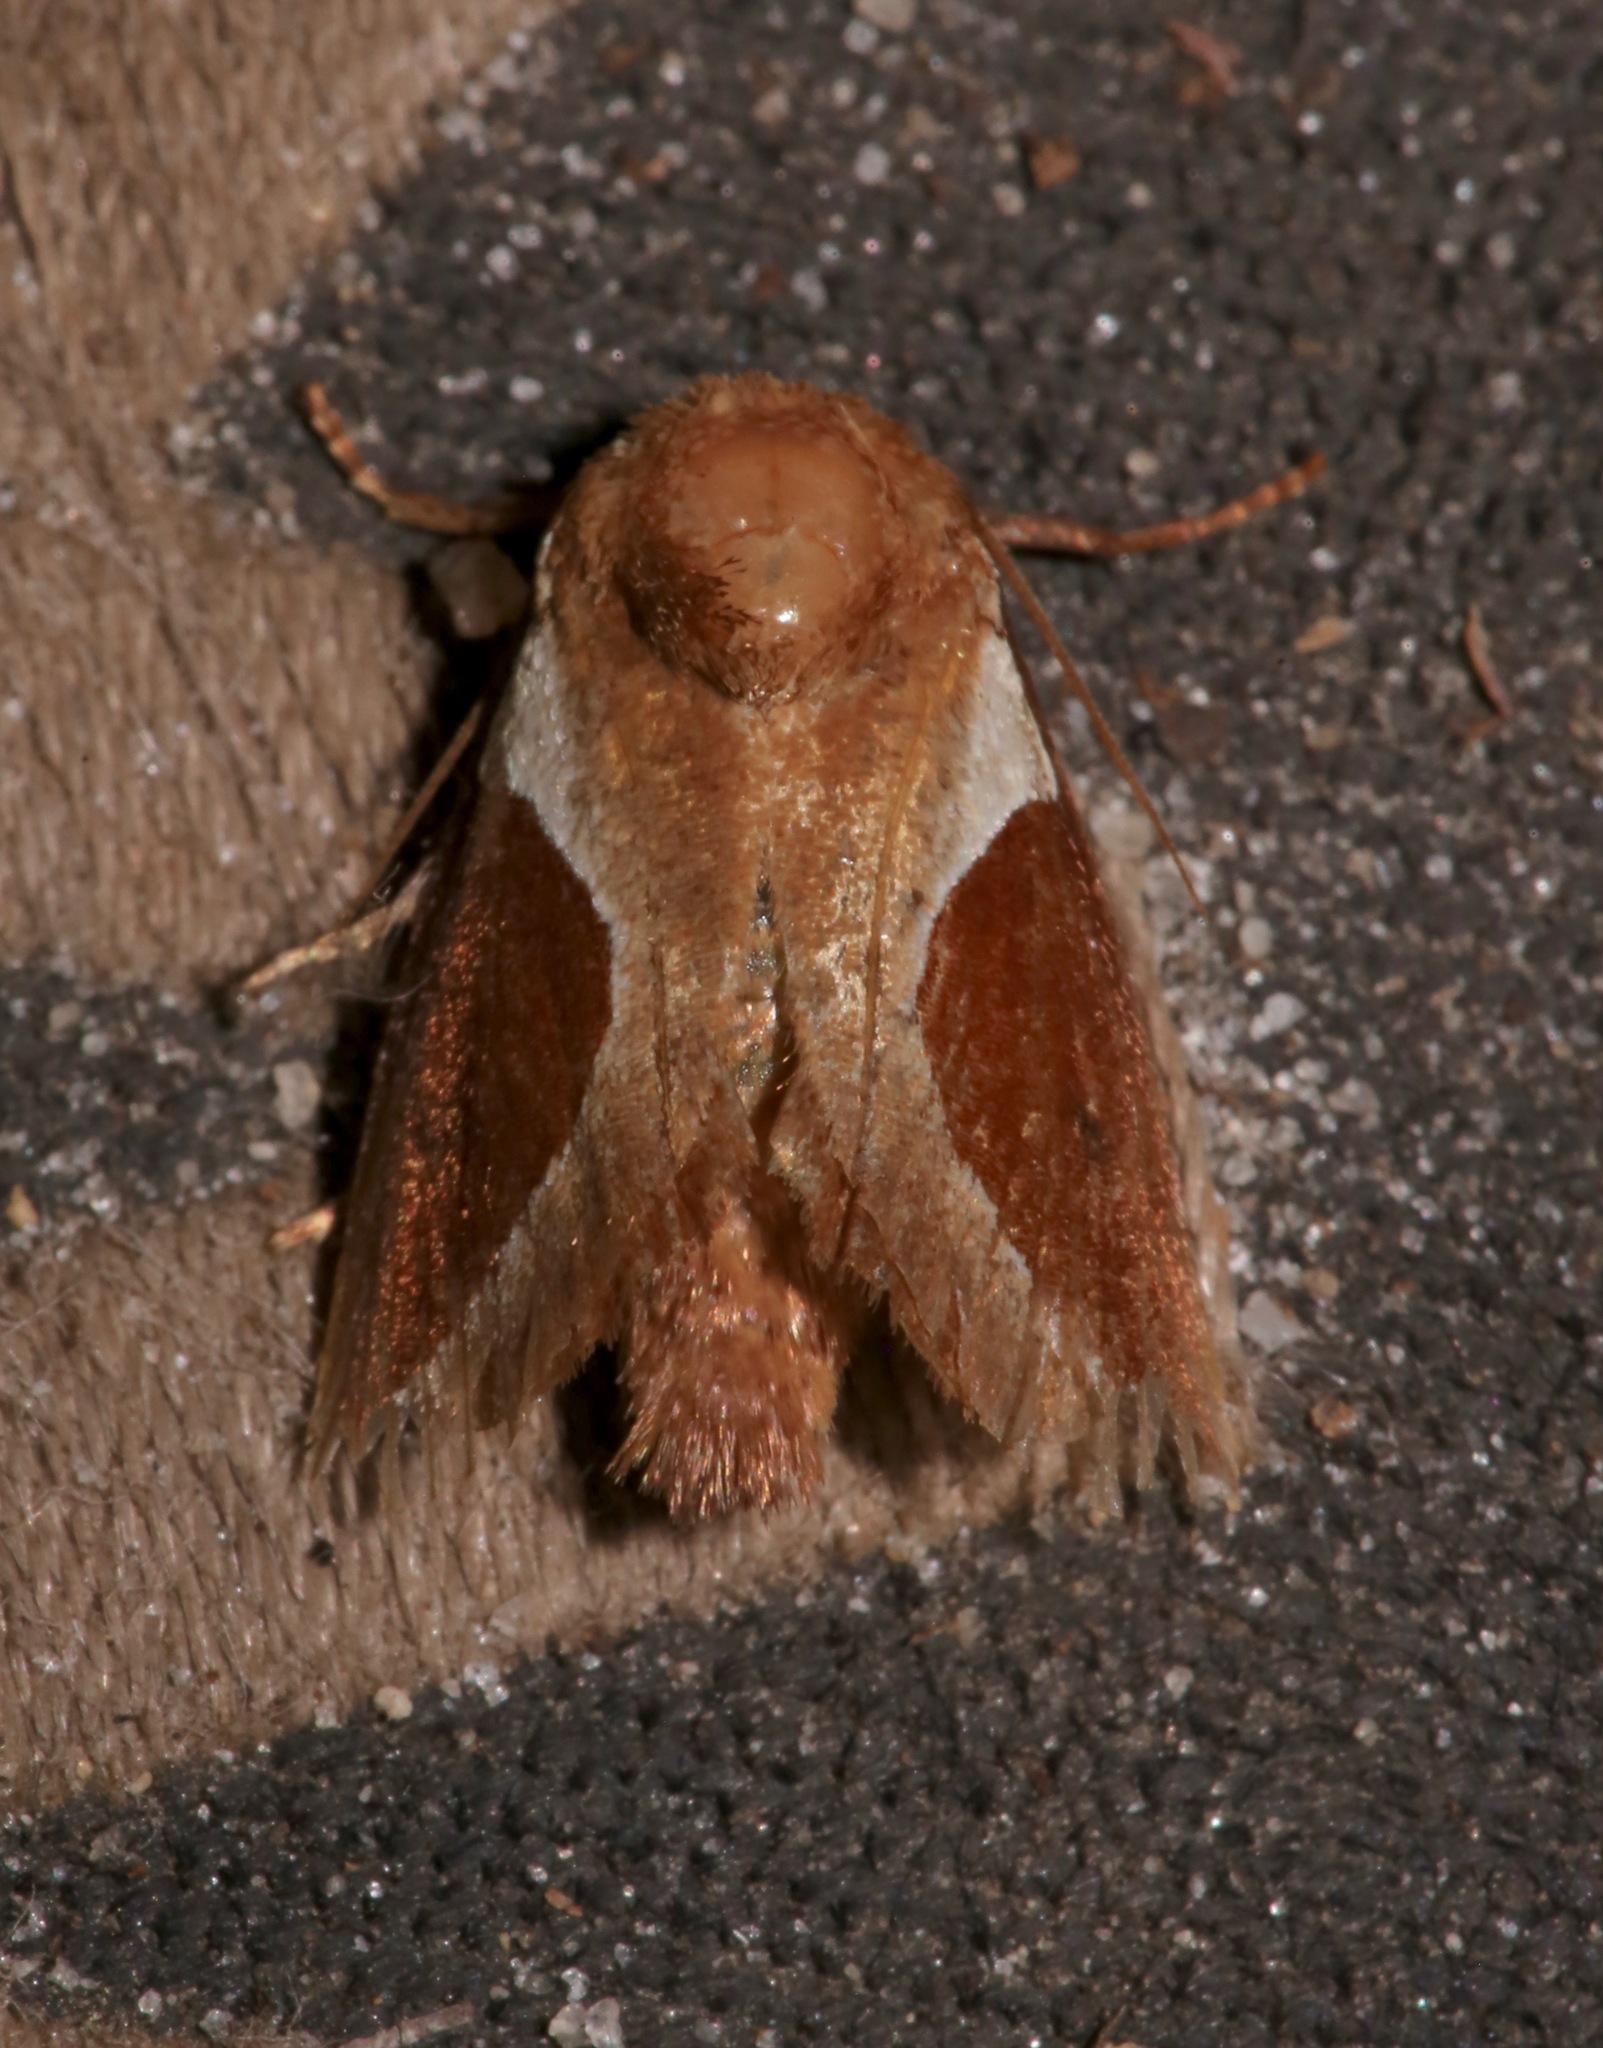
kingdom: Animalia
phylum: Arthropoda
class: Insecta
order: Lepidoptera
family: Limacodidae
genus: Prolimacodes
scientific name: Prolimacodes badia
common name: Skiff moth
